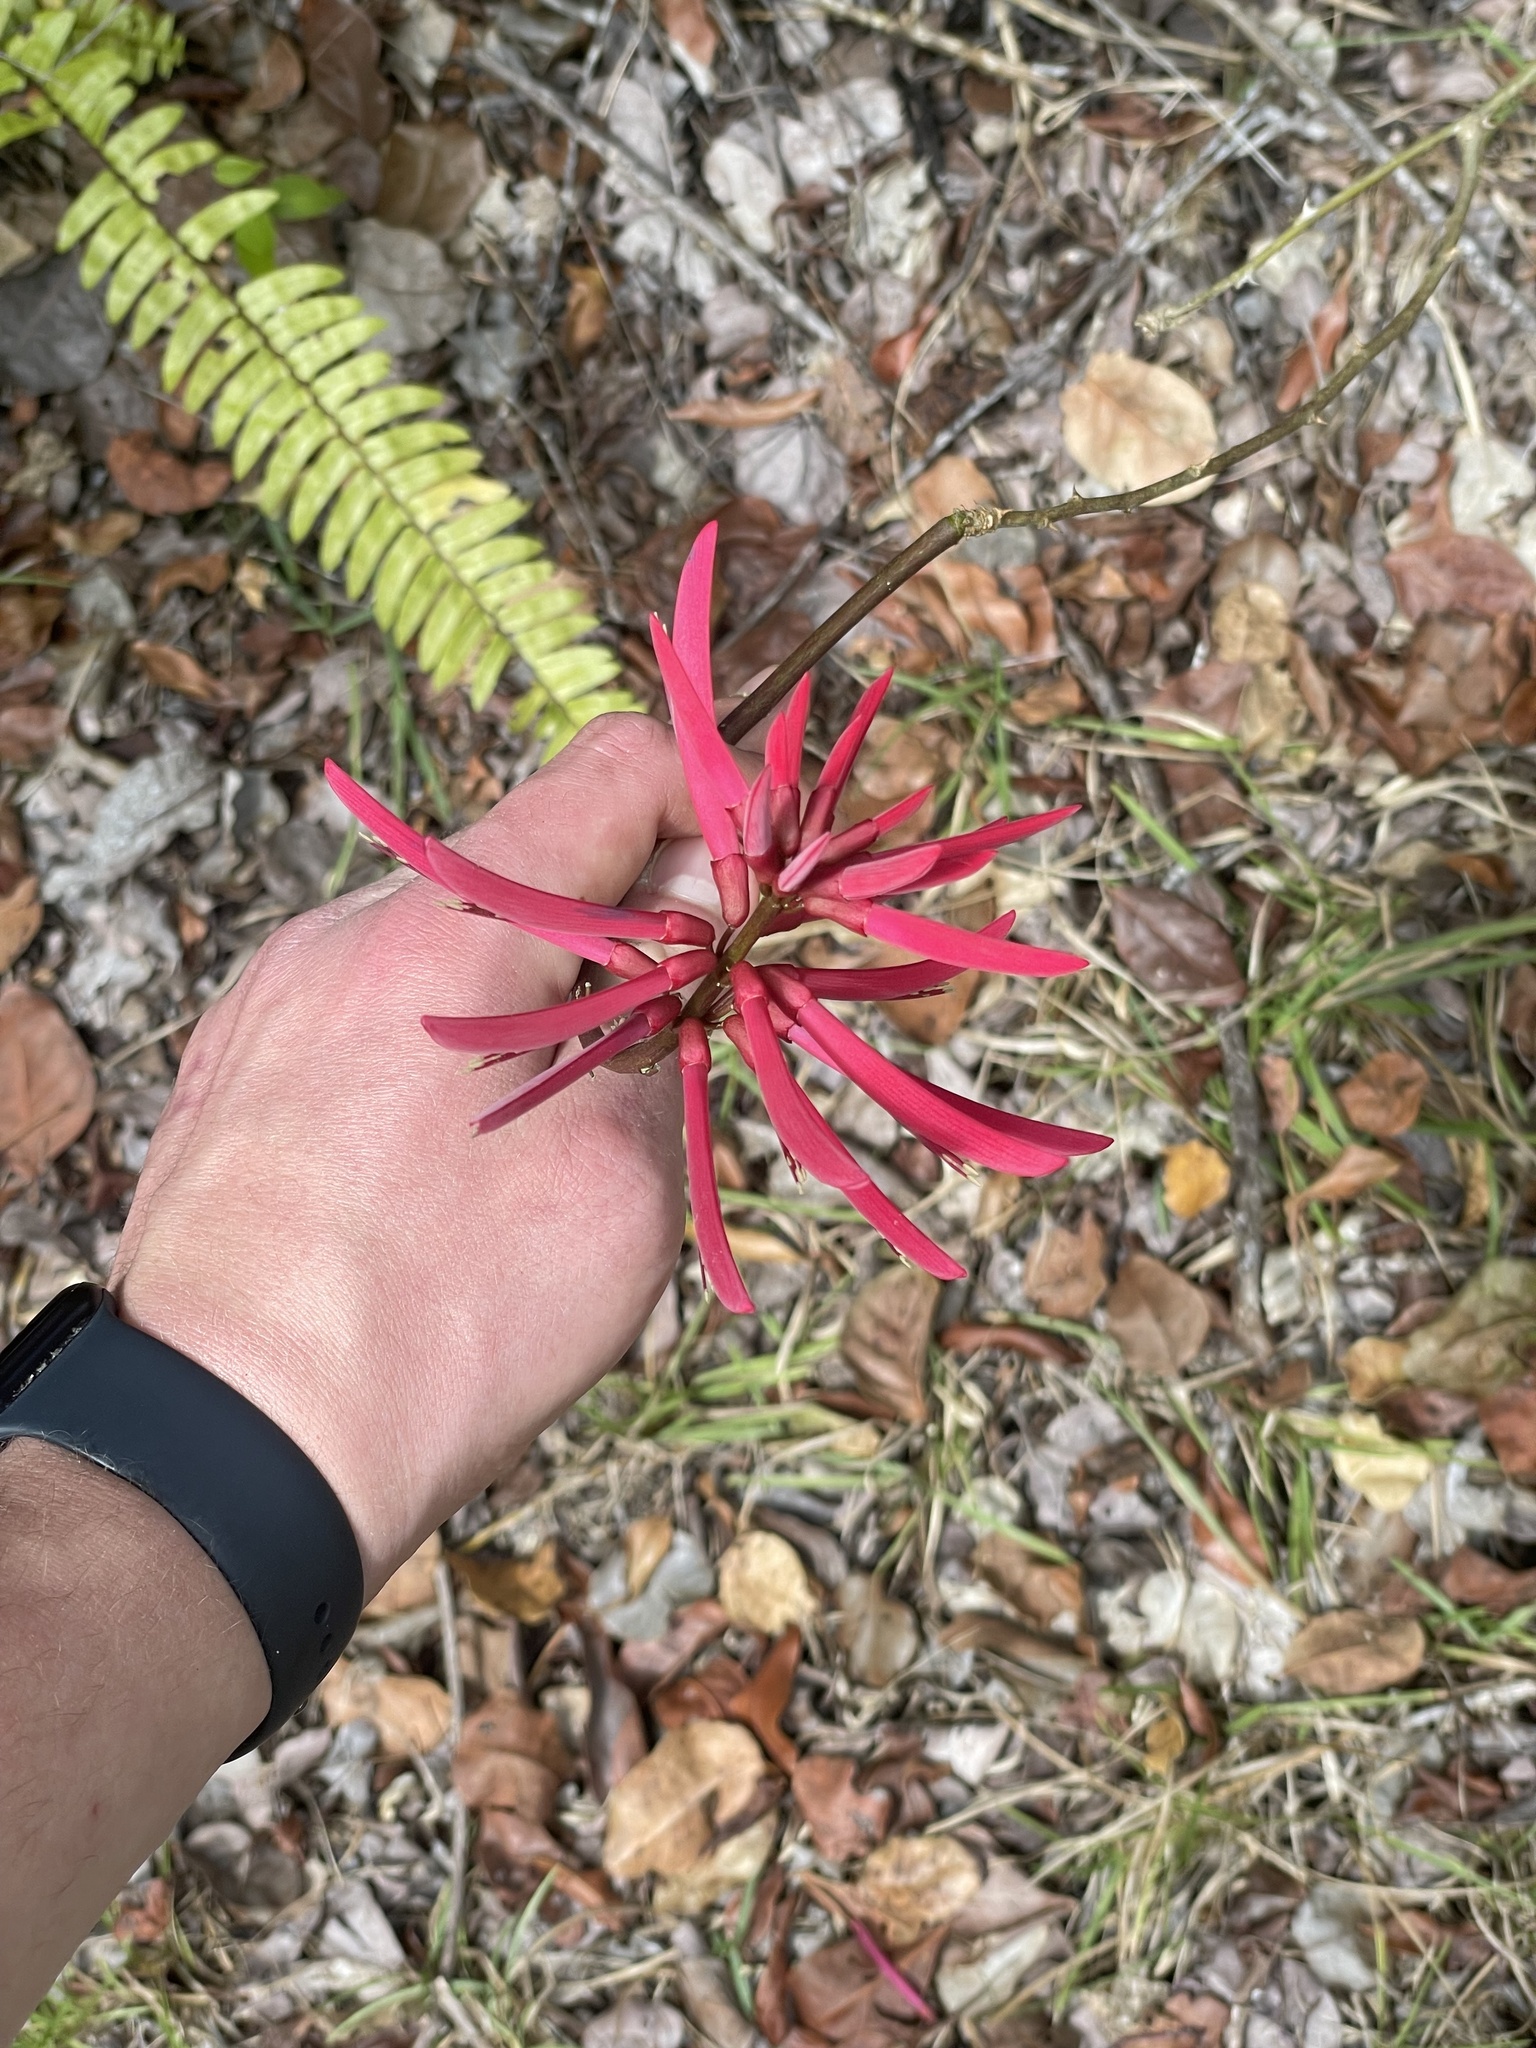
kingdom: Plantae
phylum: Tracheophyta
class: Magnoliopsida
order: Fabales
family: Fabaceae
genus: Erythrina
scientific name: Erythrina herbacea
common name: Coral-bean
